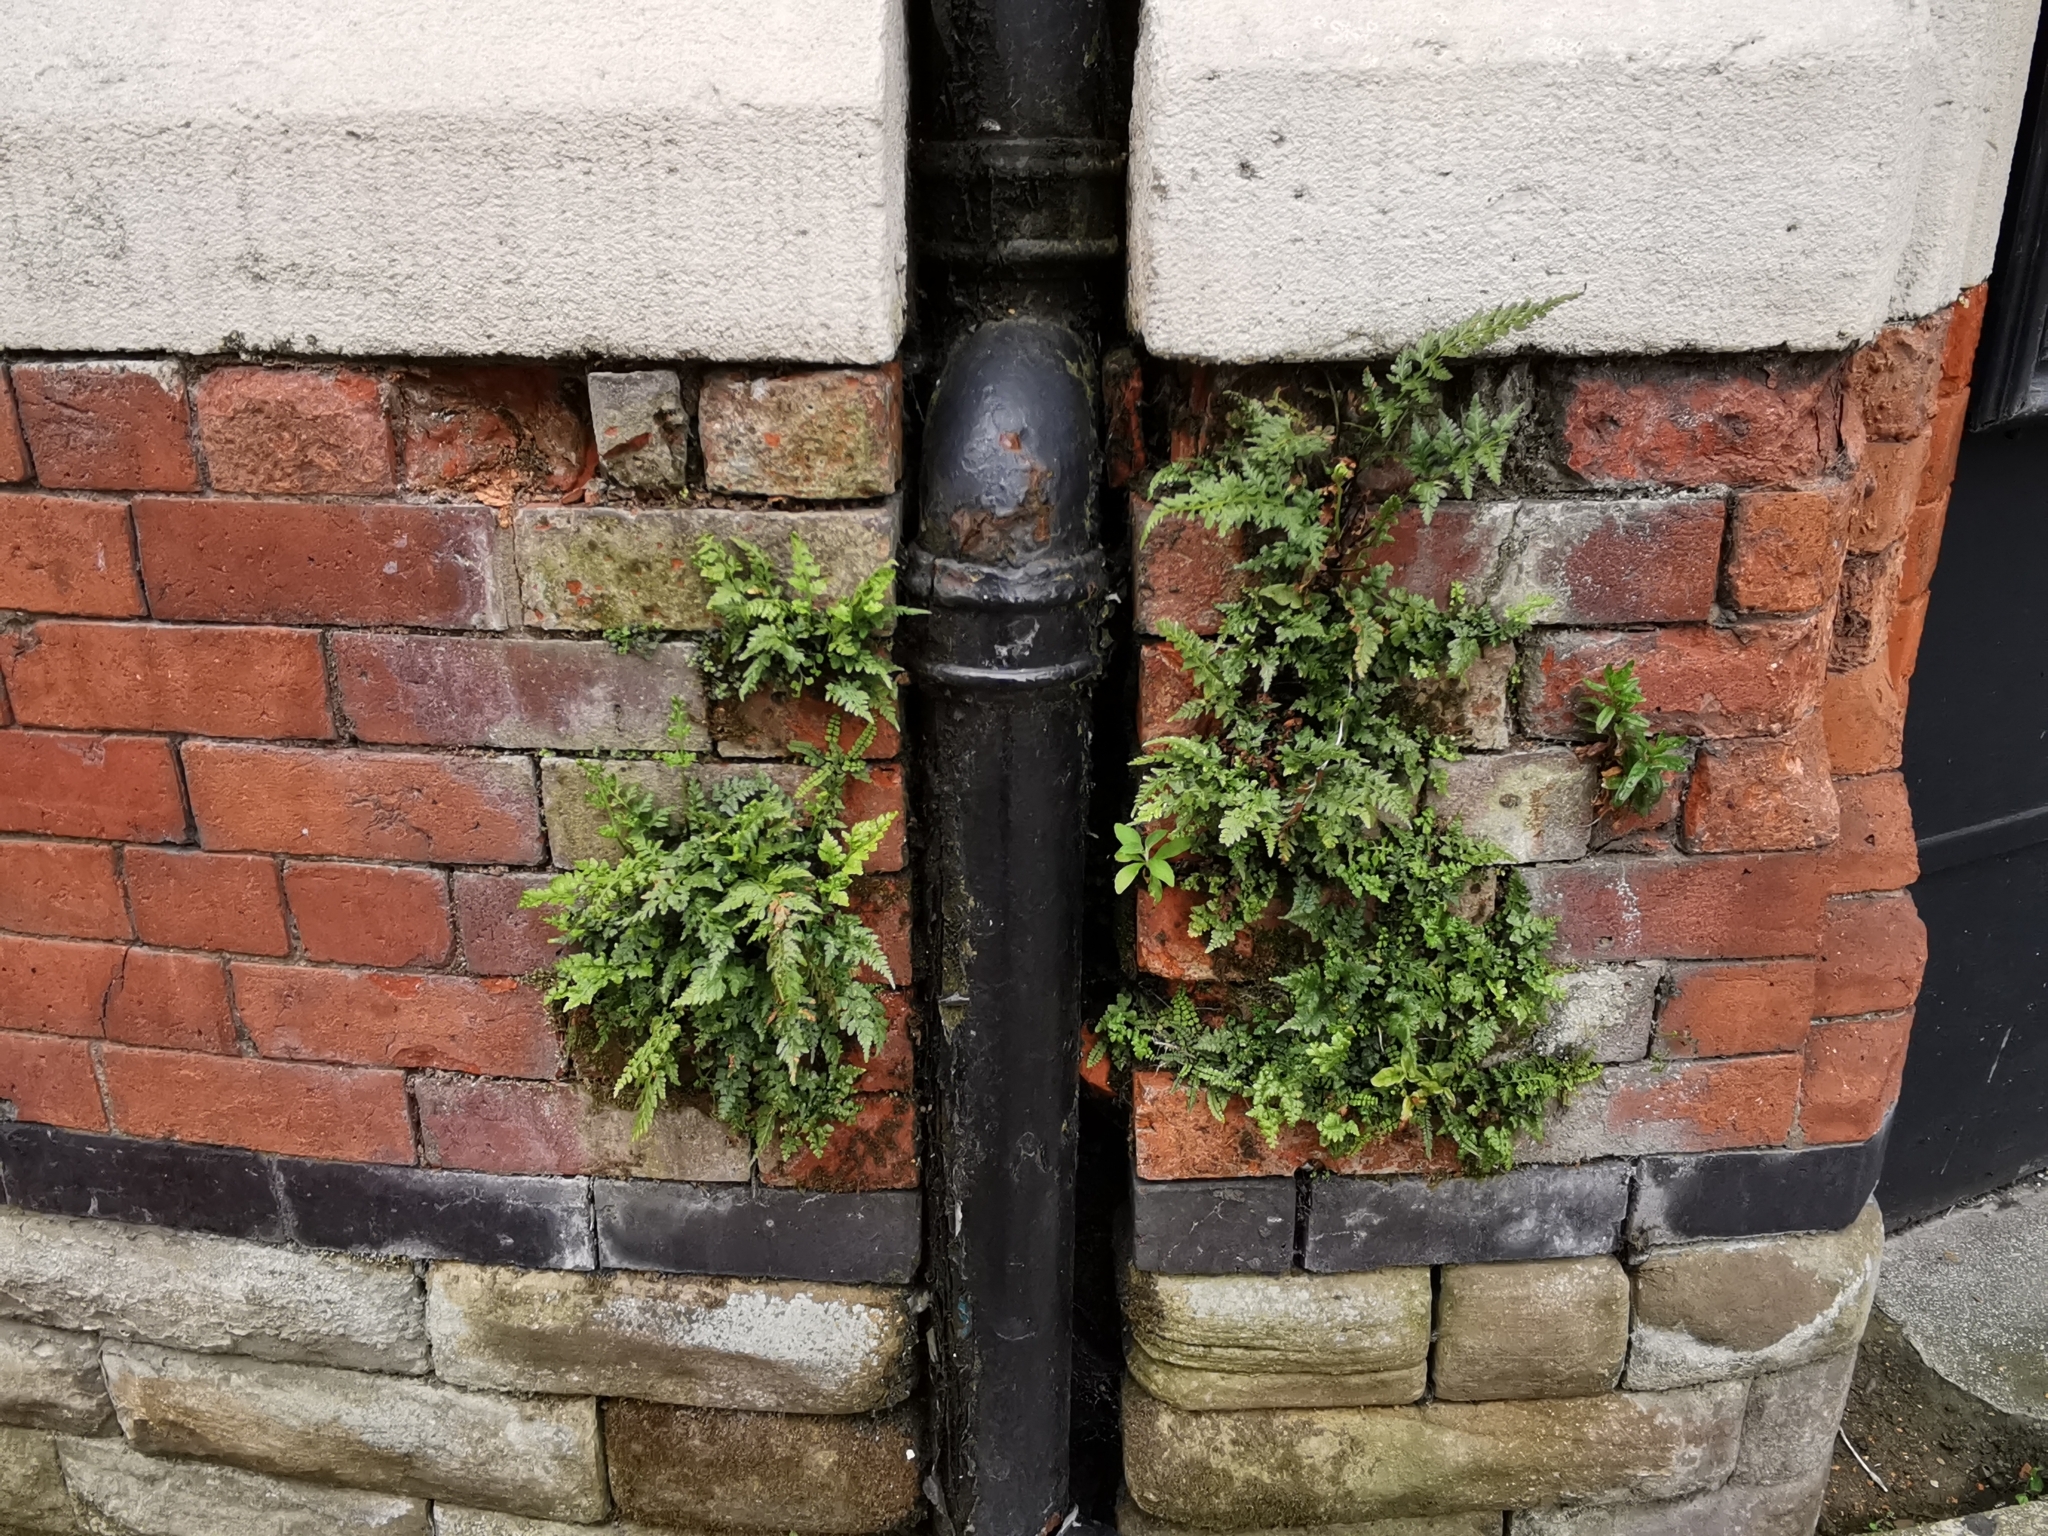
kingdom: Plantae
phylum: Tracheophyta
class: Polypodiopsida
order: Polypodiales
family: Aspleniaceae
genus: Asplenium
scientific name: Asplenium ruta-muraria
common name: Wall-rue
